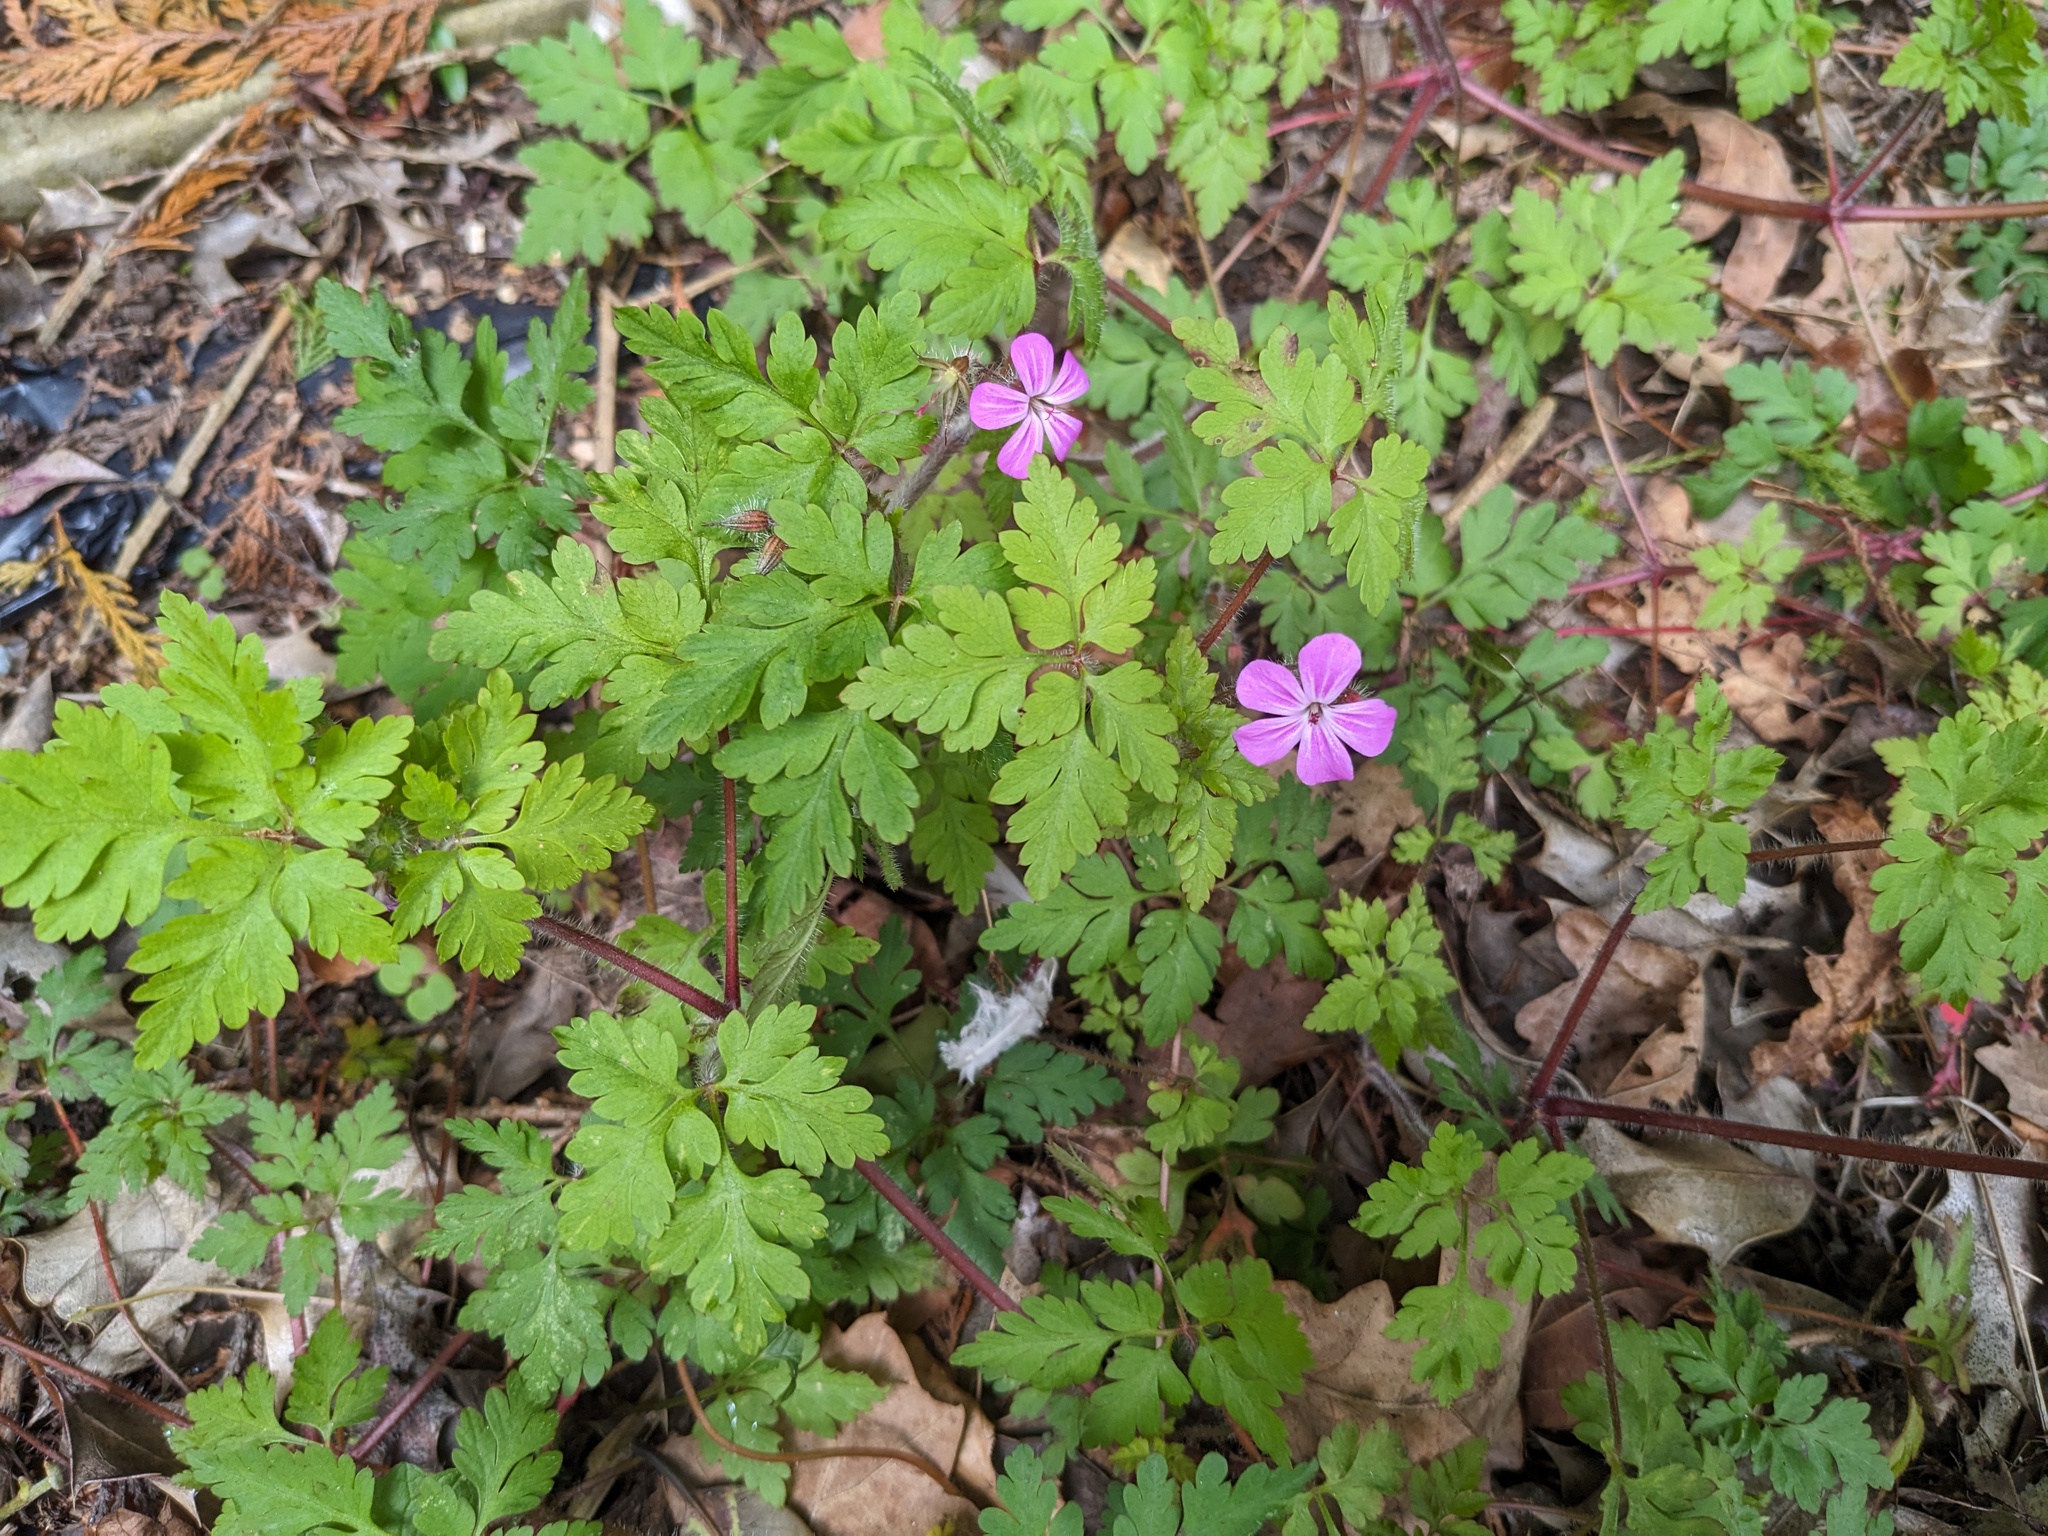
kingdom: Plantae
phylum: Tracheophyta
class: Magnoliopsida
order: Geraniales
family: Geraniaceae
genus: Geranium
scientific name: Geranium robertianum
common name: Herb-robert
